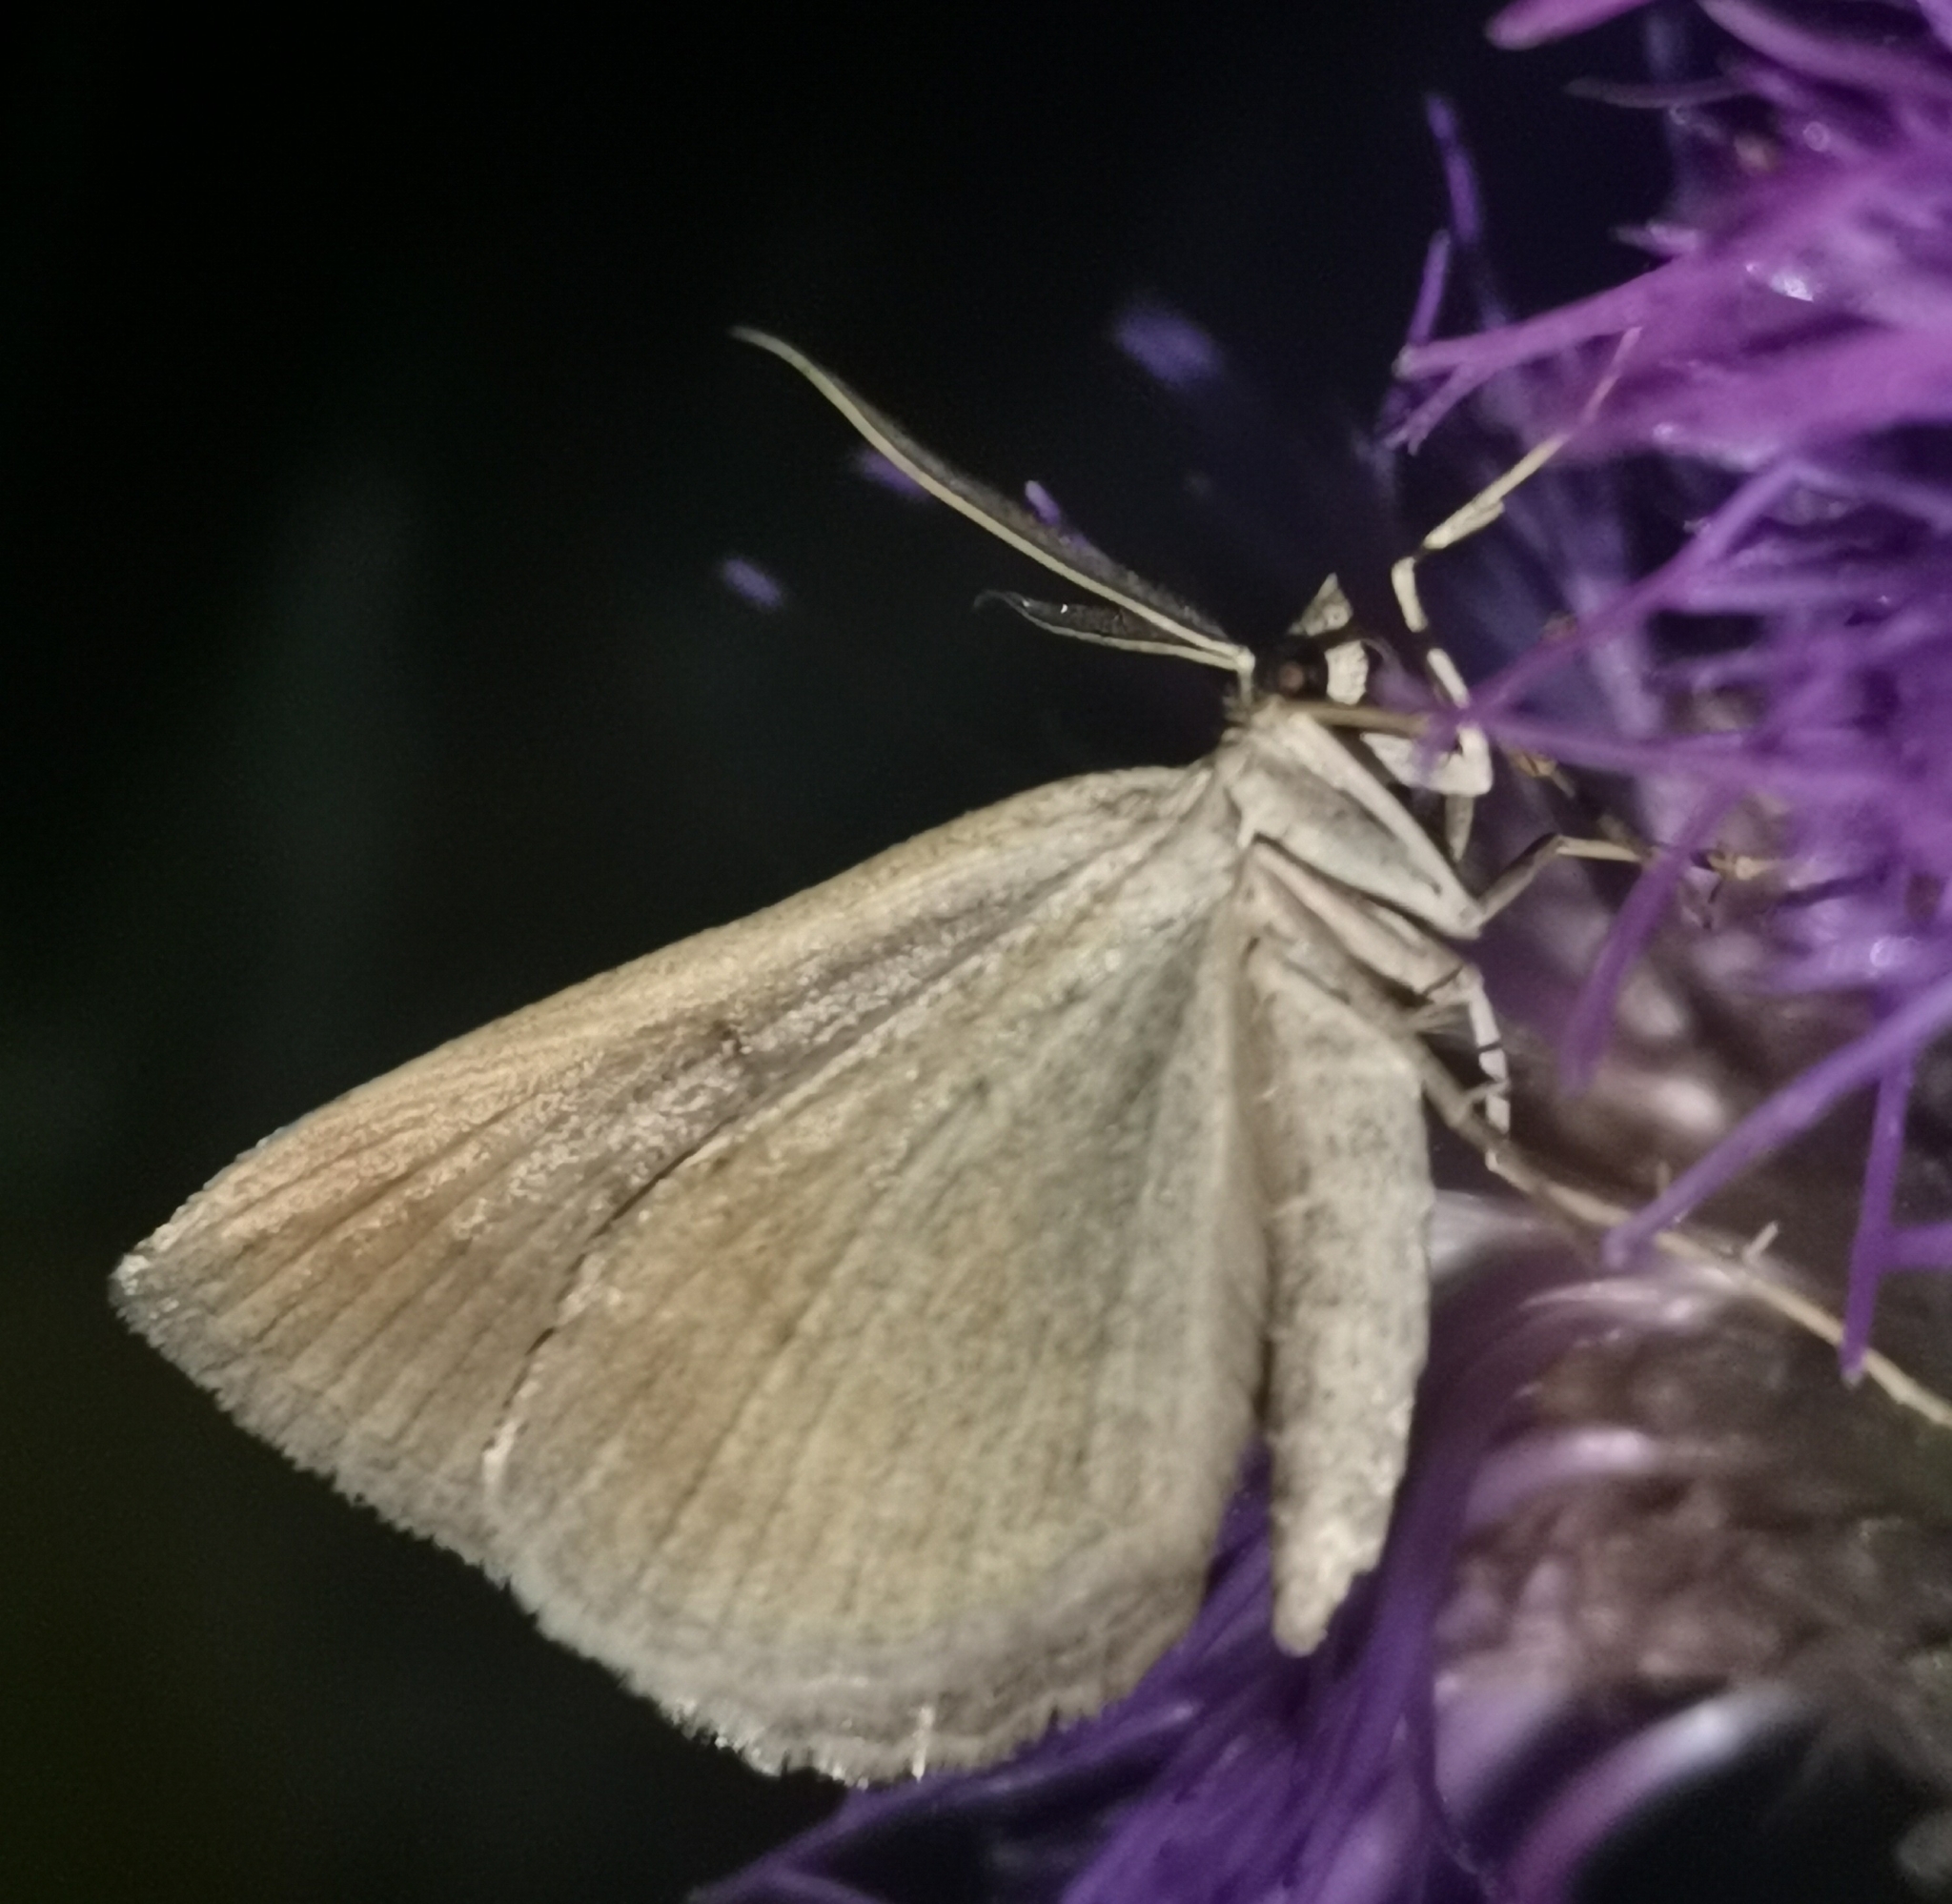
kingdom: Animalia
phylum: Arthropoda
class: Insecta
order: Lepidoptera
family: Geometridae
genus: Scotopteryx
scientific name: Scotopteryx chenopodiata
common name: Shaded broad-bar
